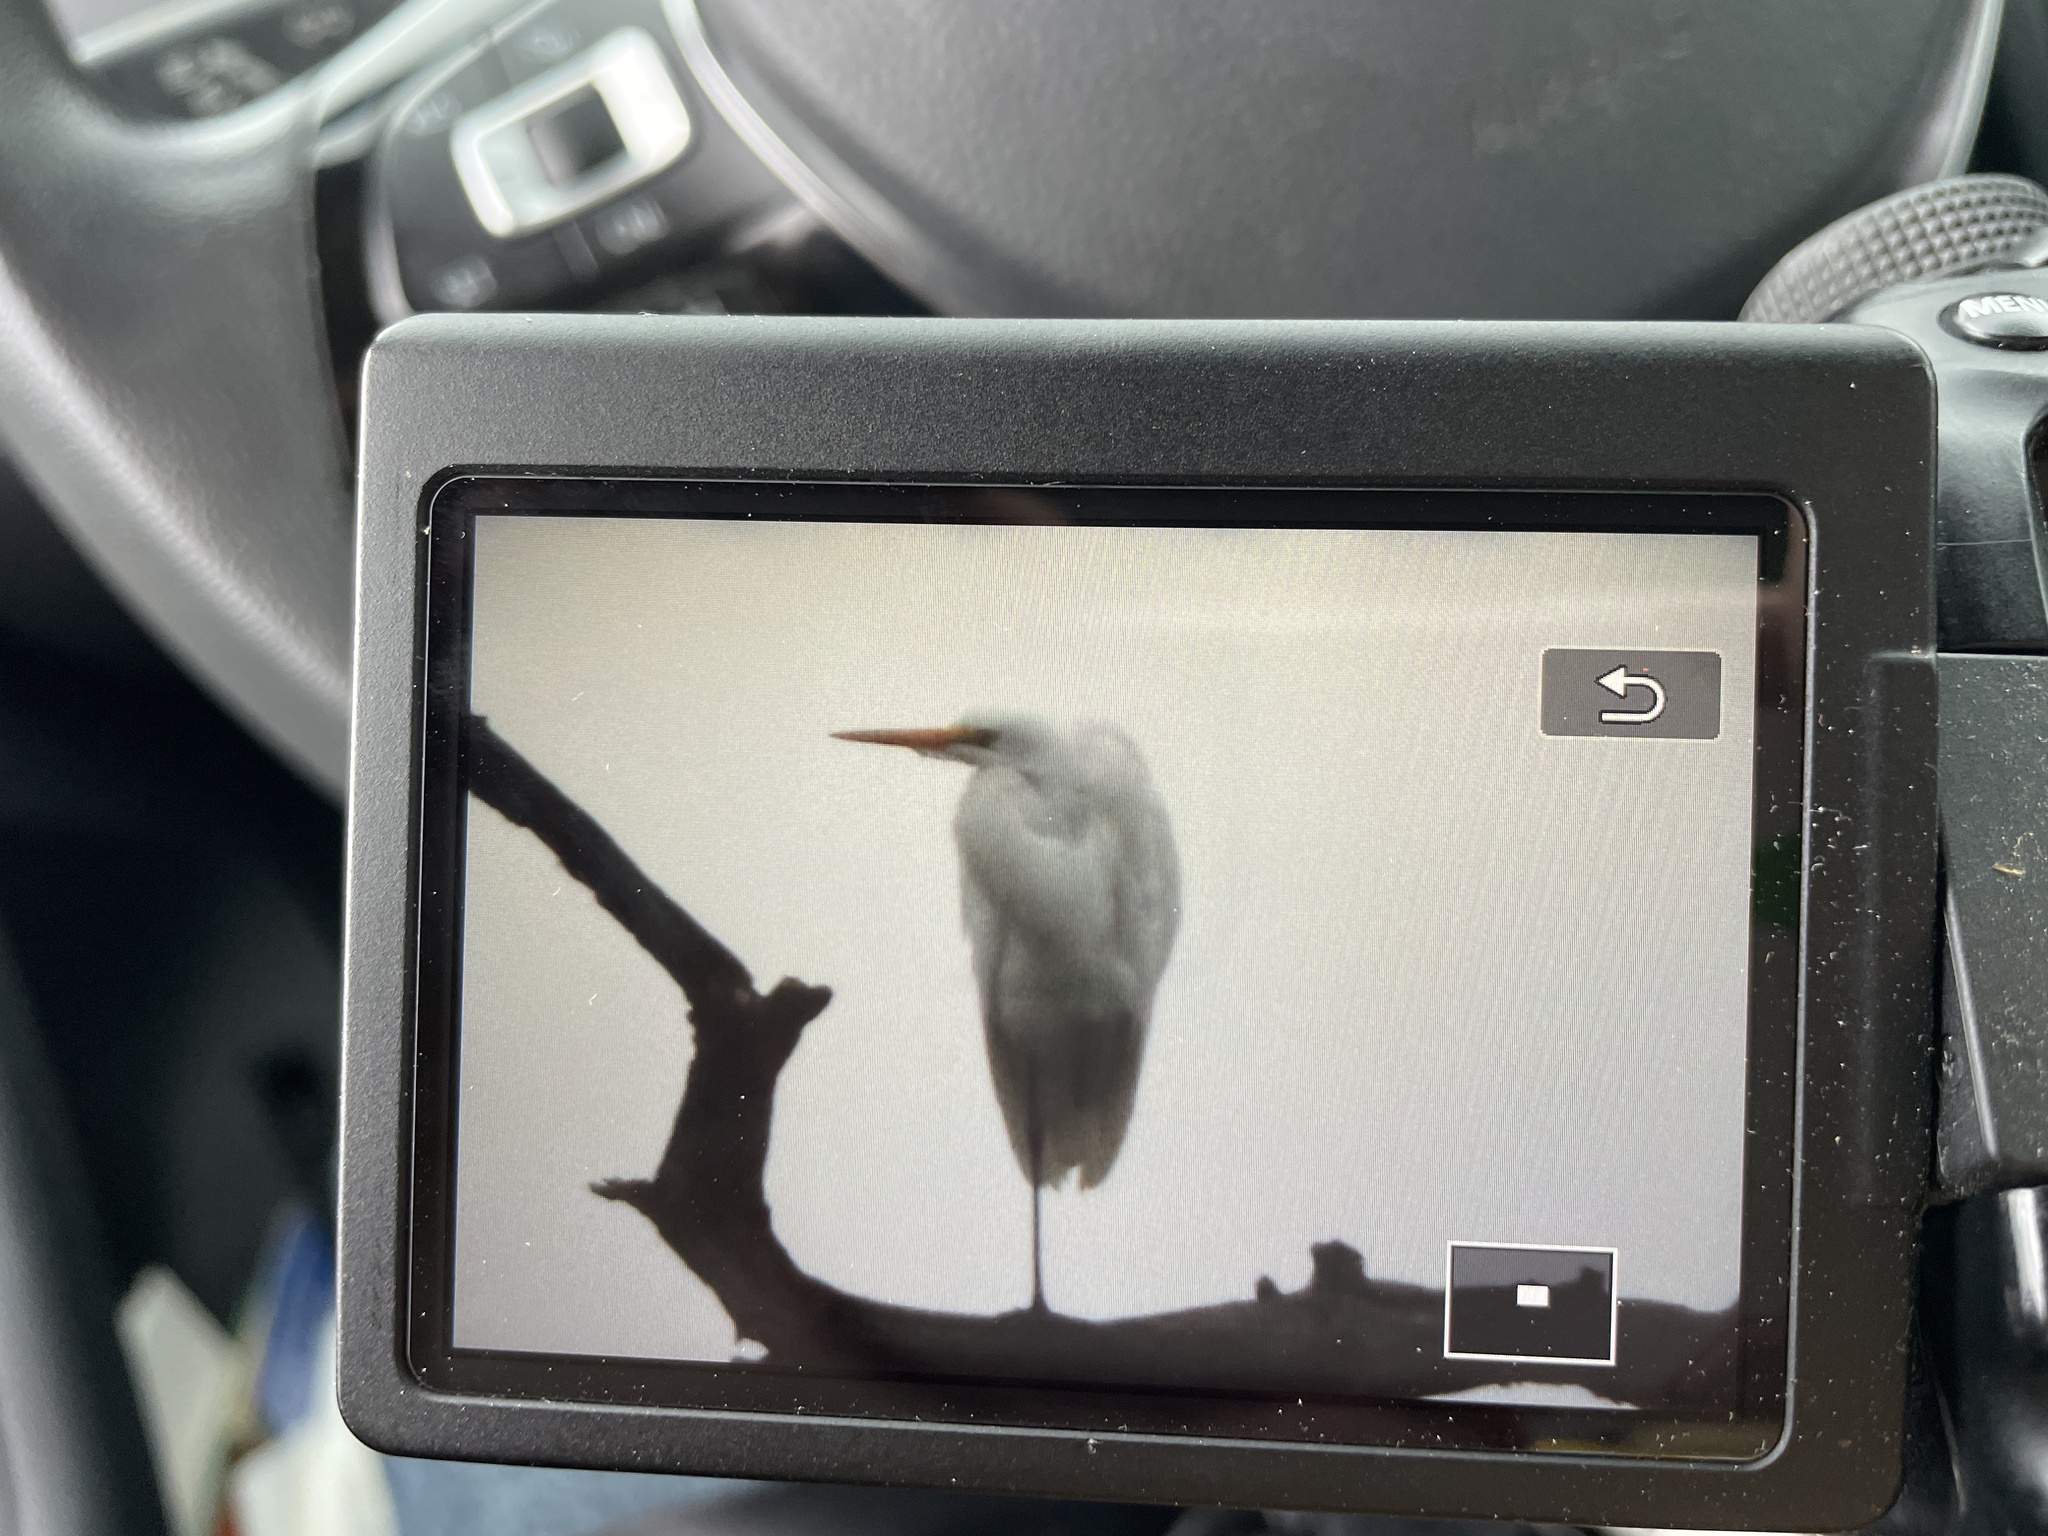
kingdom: Animalia
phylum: Chordata
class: Aves
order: Pelecaniformes
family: Ardeidae
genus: Ardea
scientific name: Ardea alba
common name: Great egret
